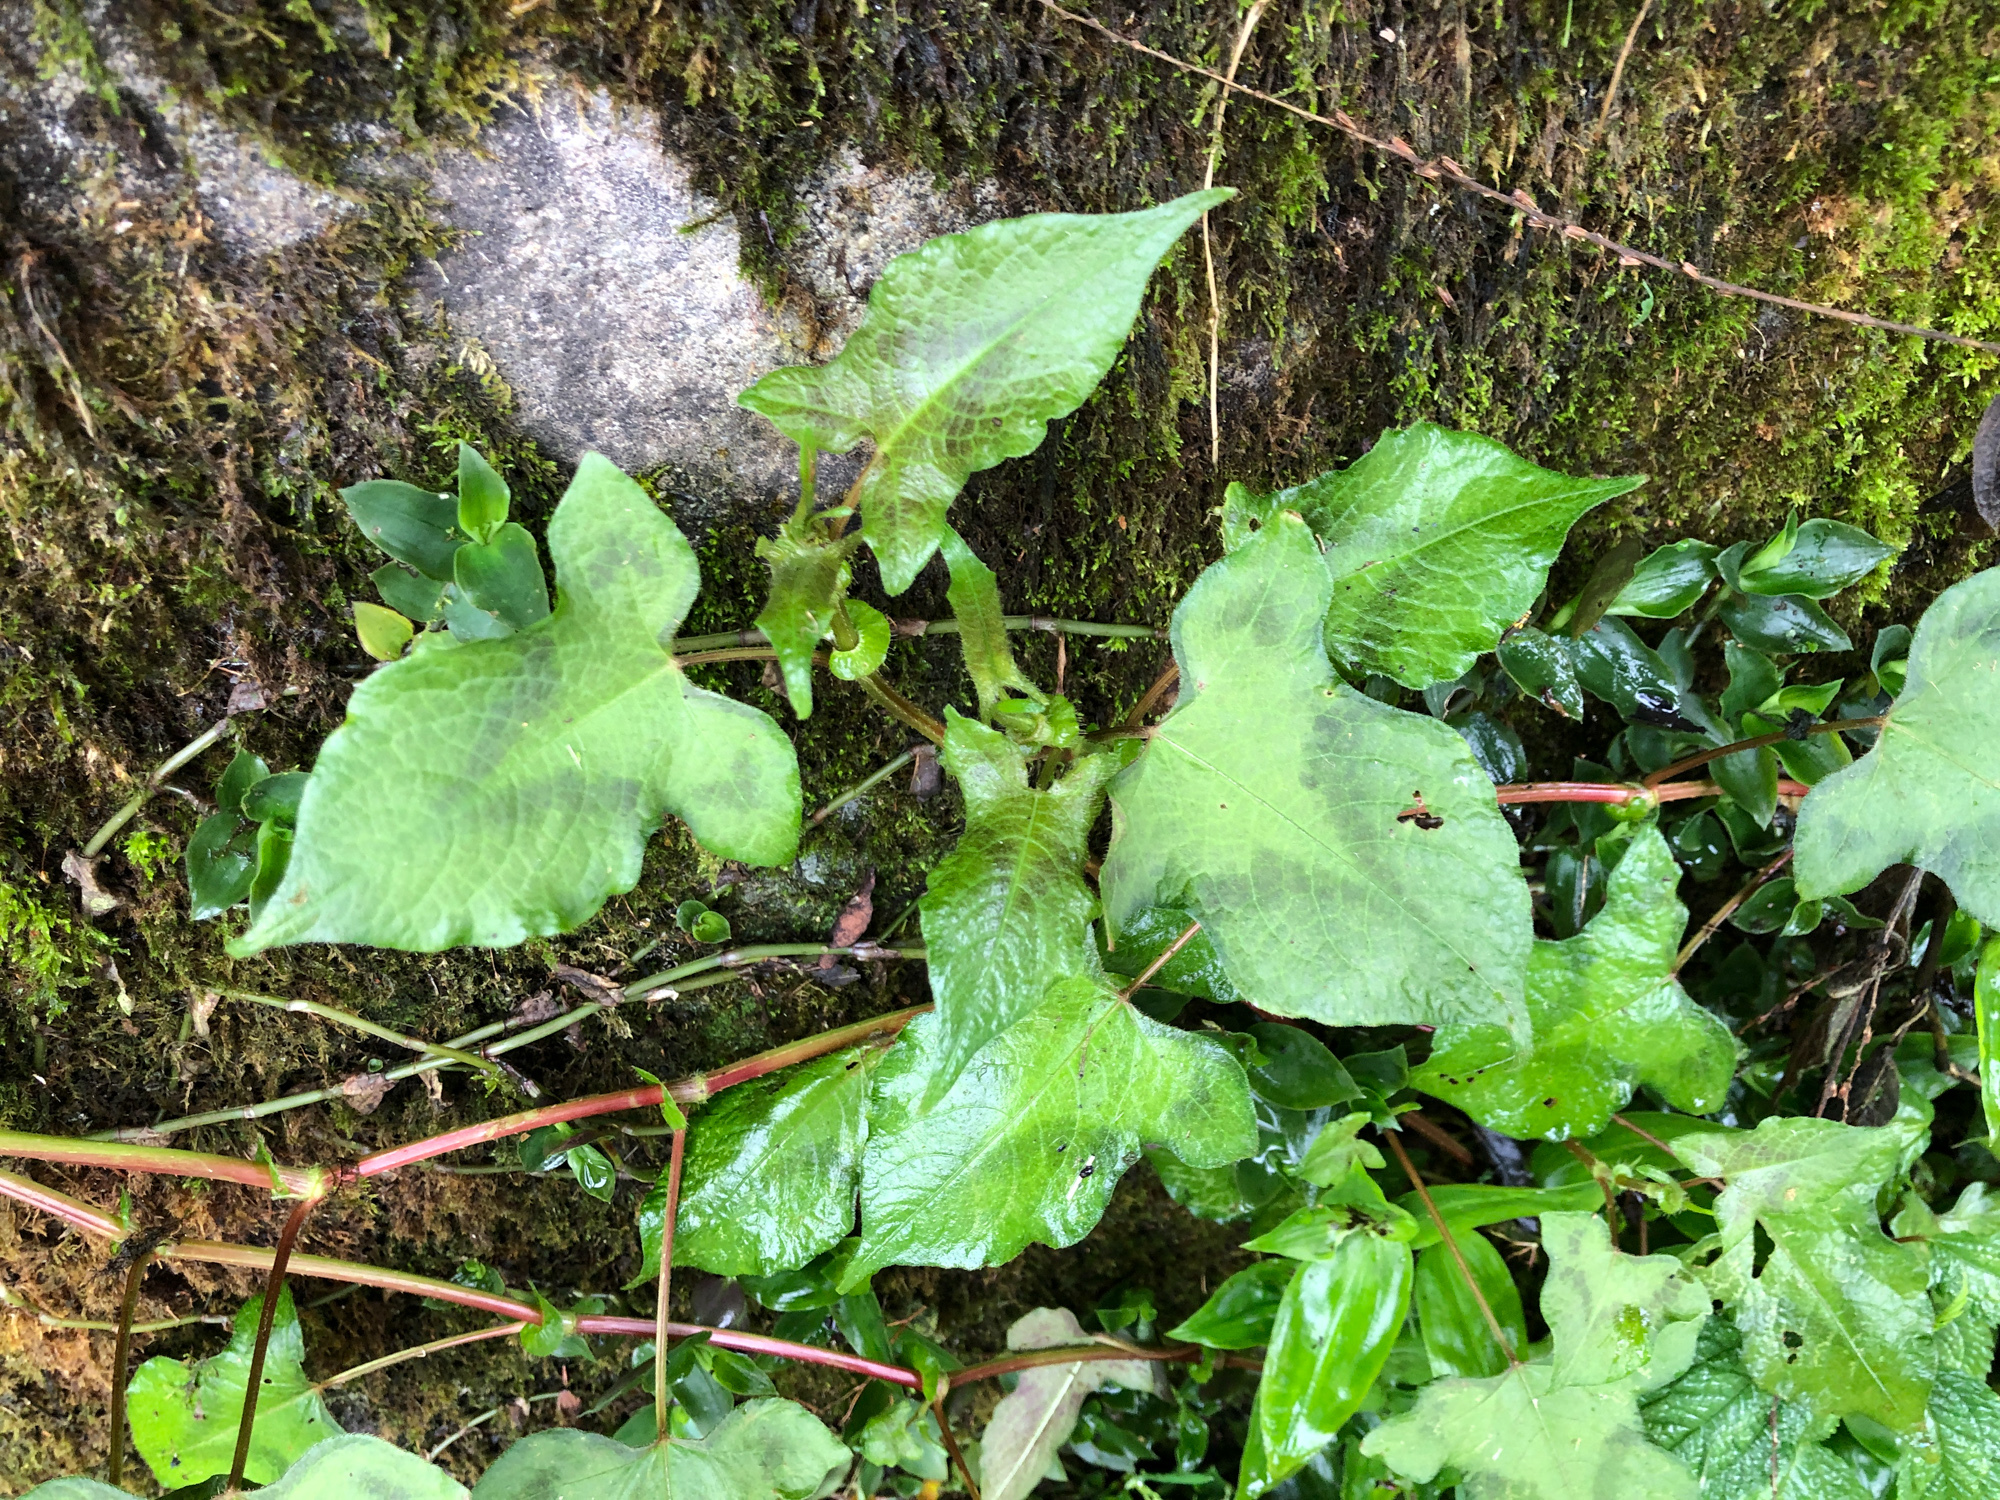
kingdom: Plantae
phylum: Tracheophyta
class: Magnoliopsida
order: Caryophyllales
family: Polygonaceae
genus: Persicaria
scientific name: Persicaria biconvexa
